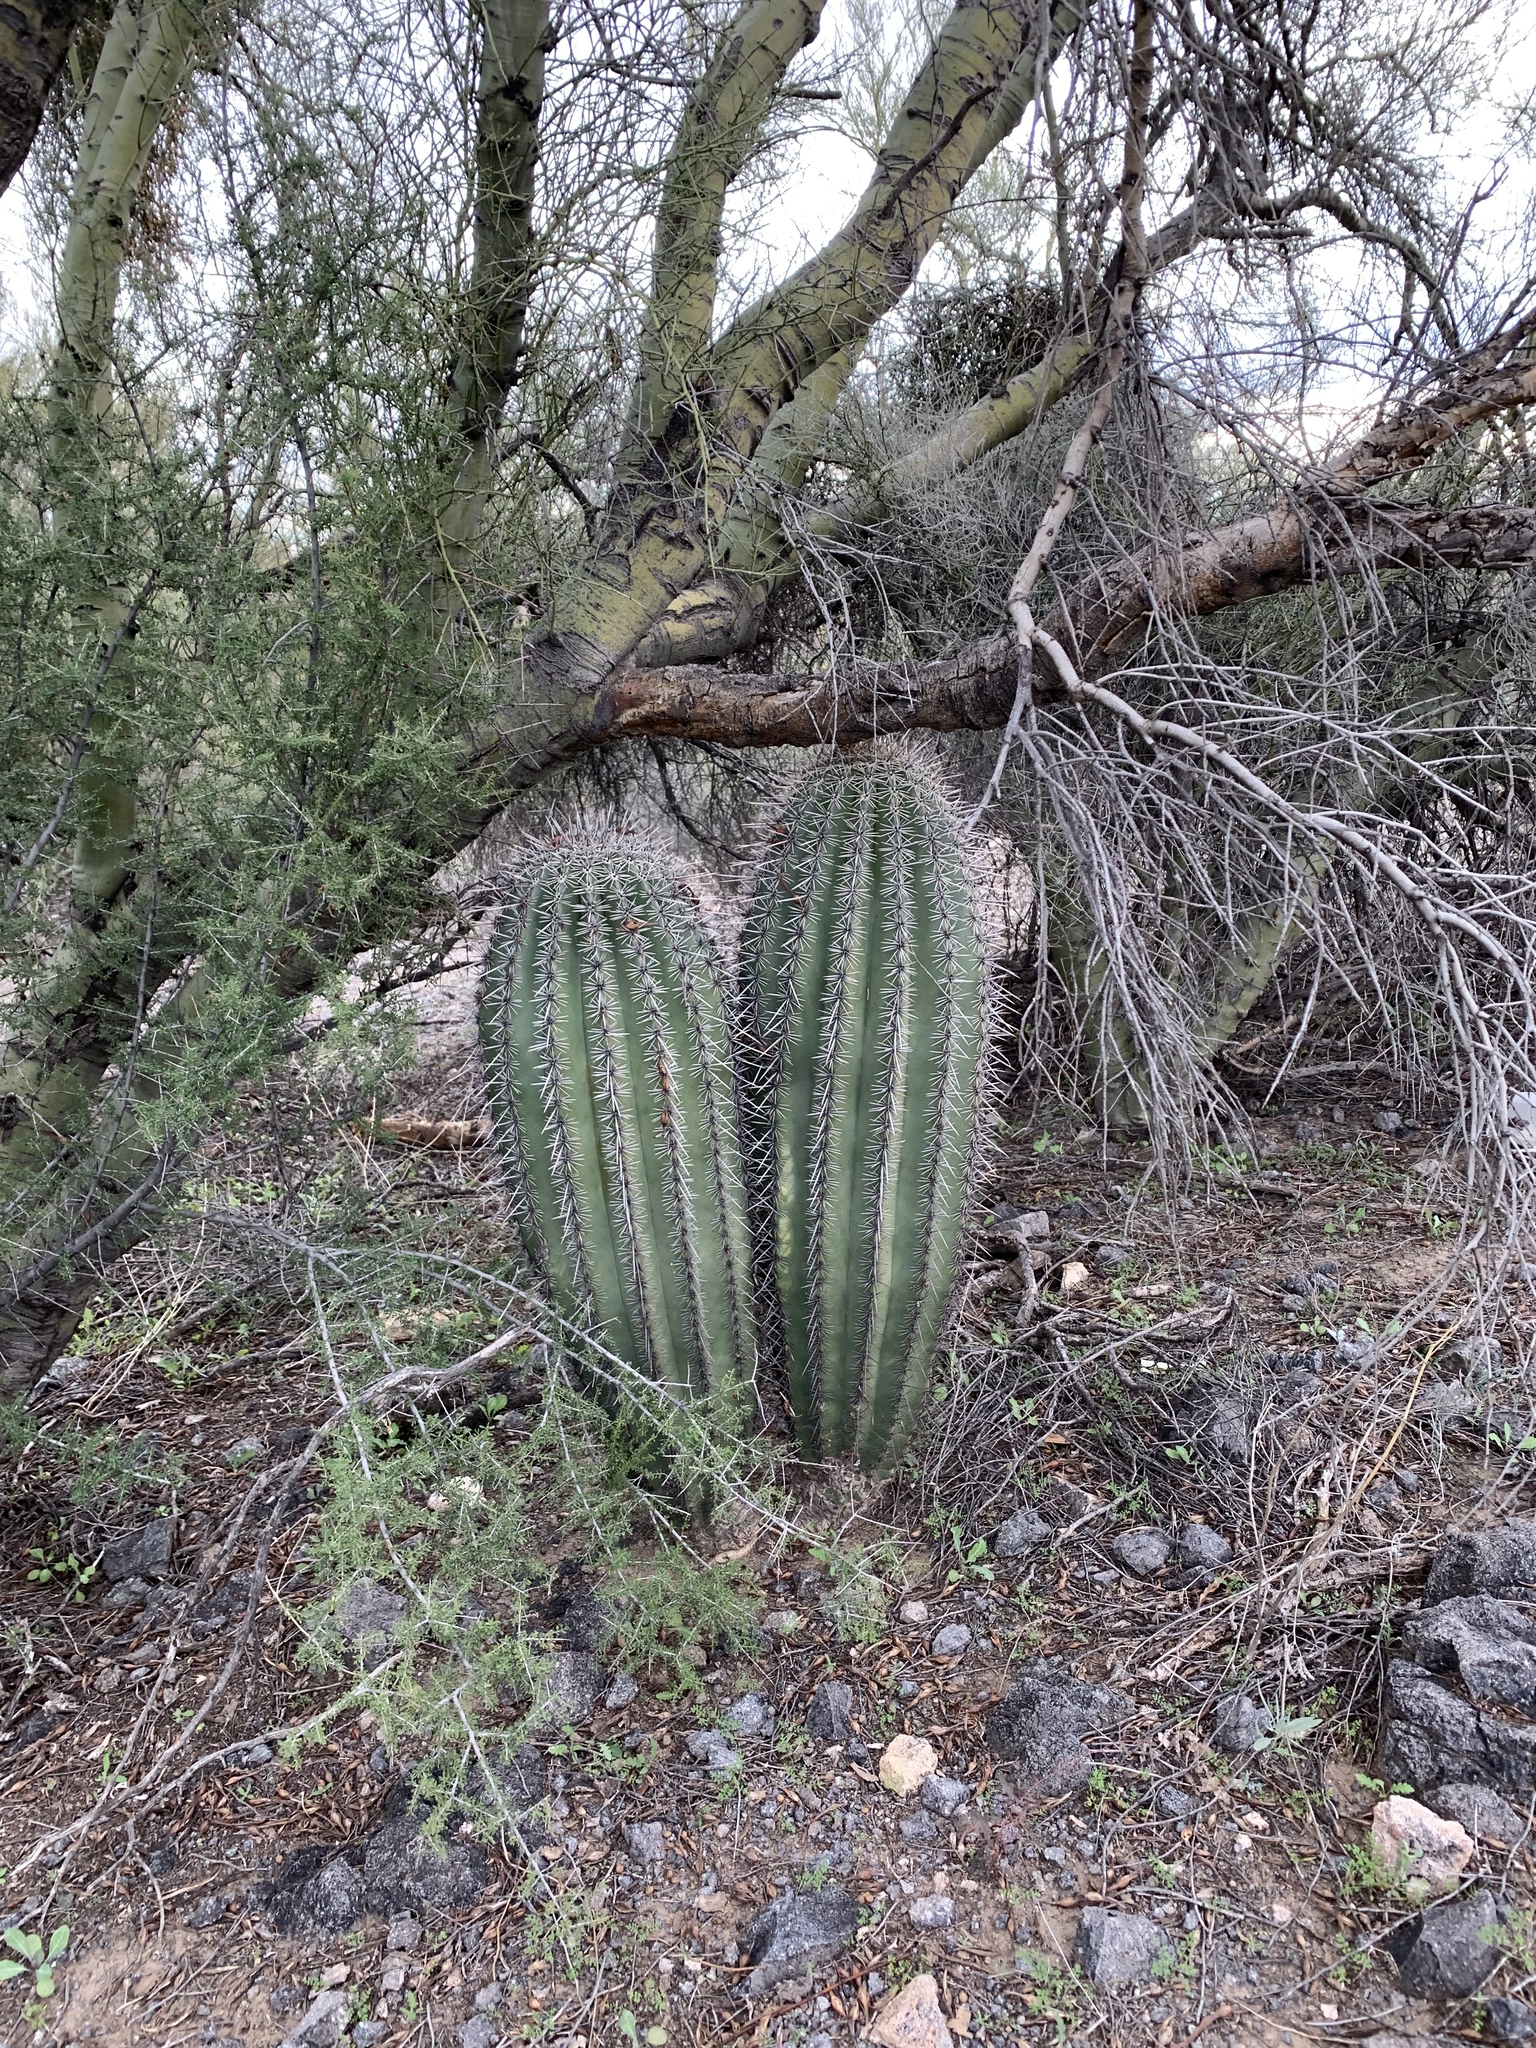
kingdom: Plantae
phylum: Tracheophyta
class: Magnoliopsida
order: Caryophyllales
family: Cactaceae
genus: Carnegiea
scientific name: Carnegiea gigantea
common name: Saguaro
